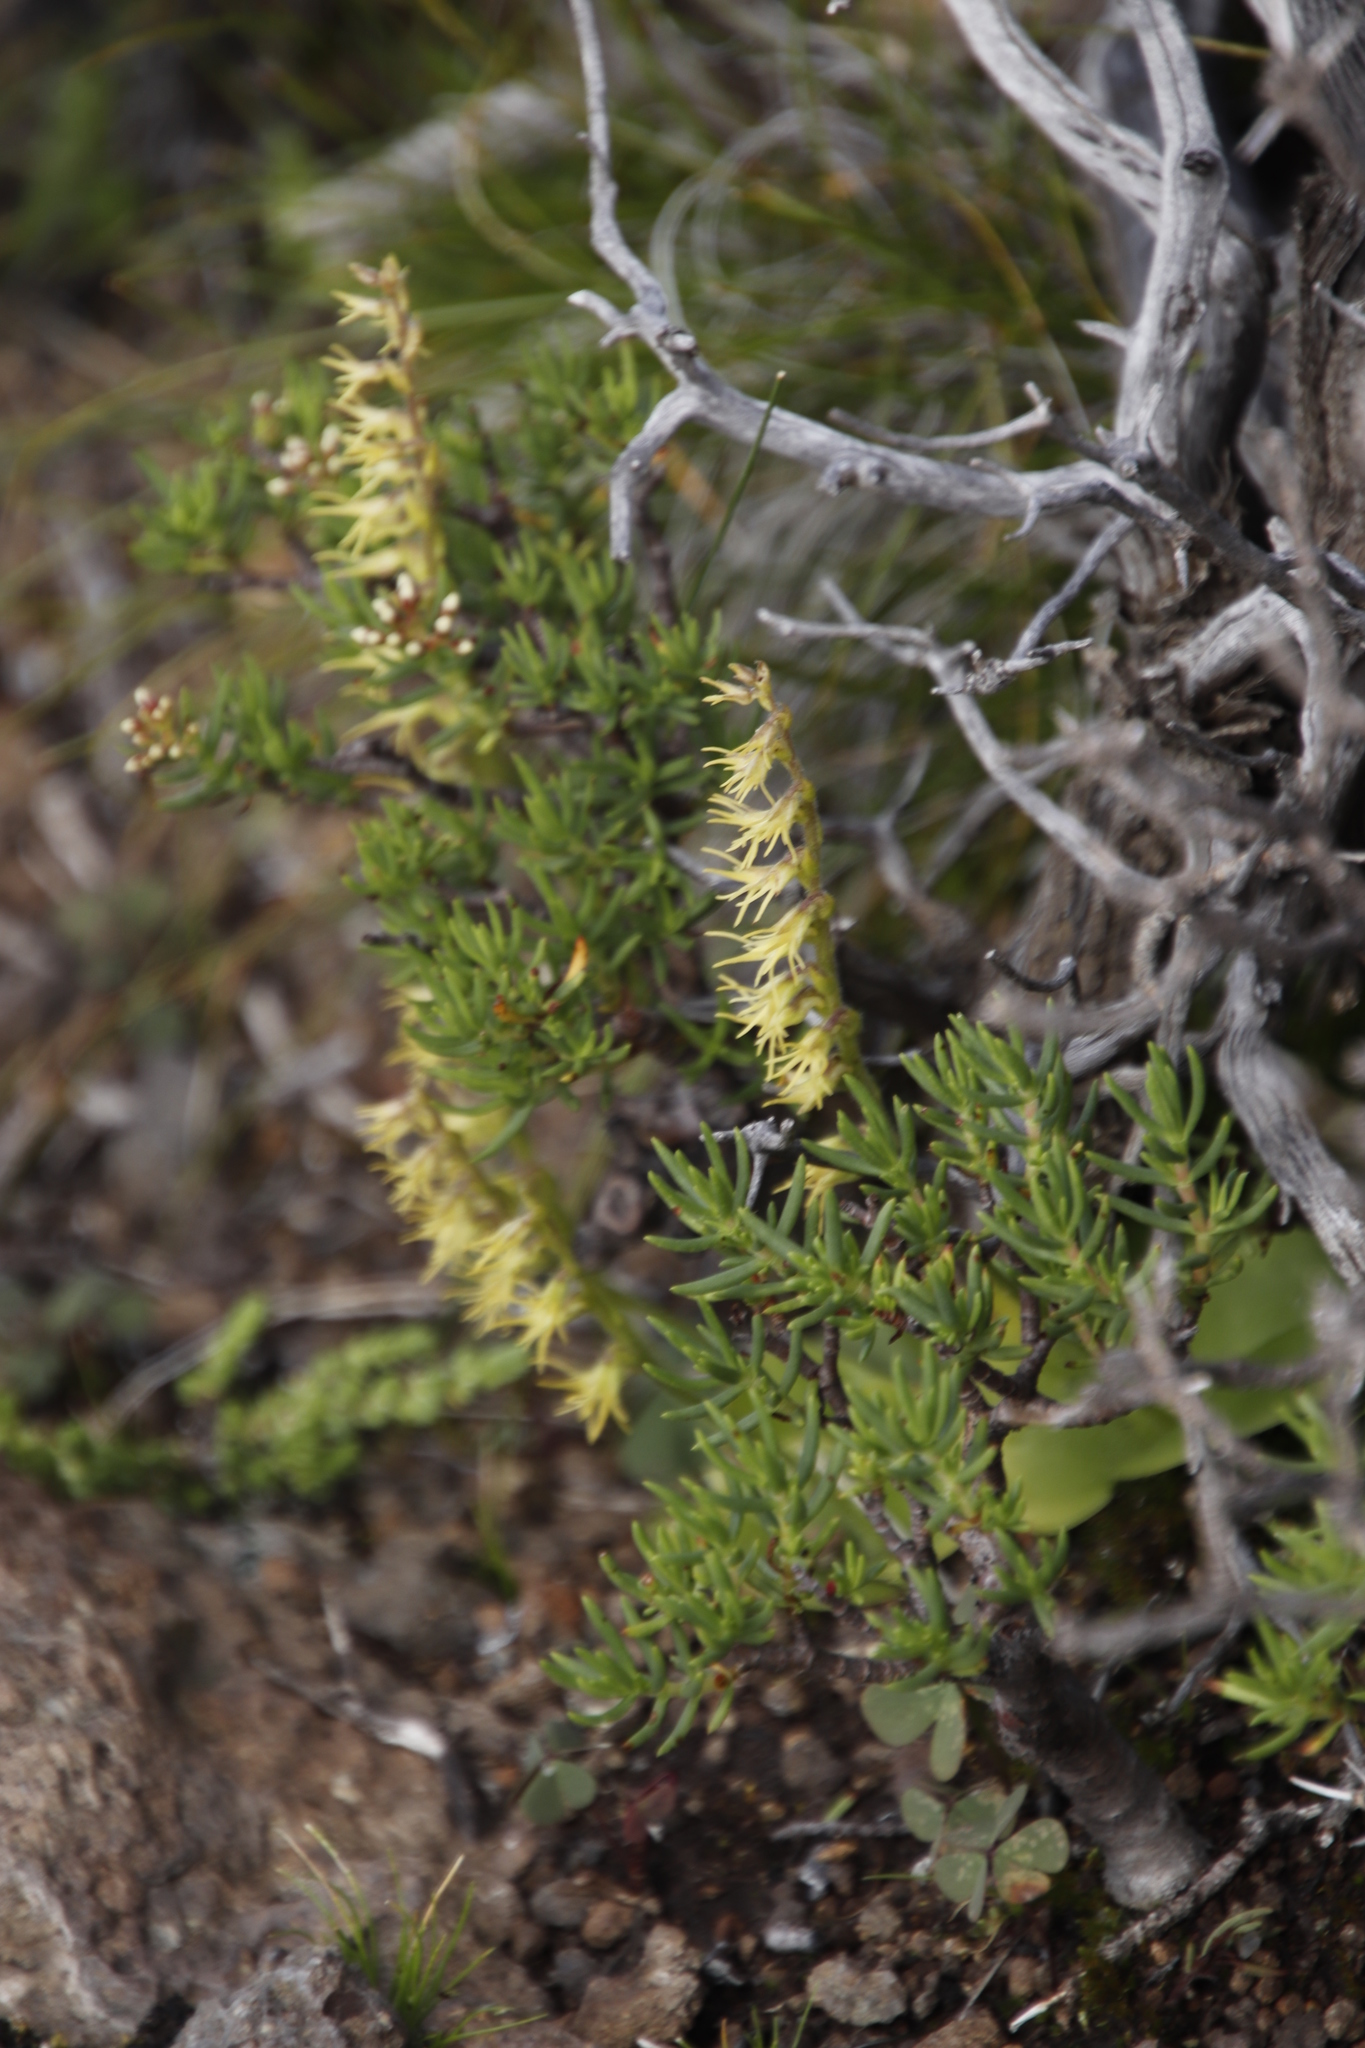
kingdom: Plantae
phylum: Tracheophyta
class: Liliopsida
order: Asparagales
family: Orchidaceae
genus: Holothrix
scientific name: Holothrix incurva
